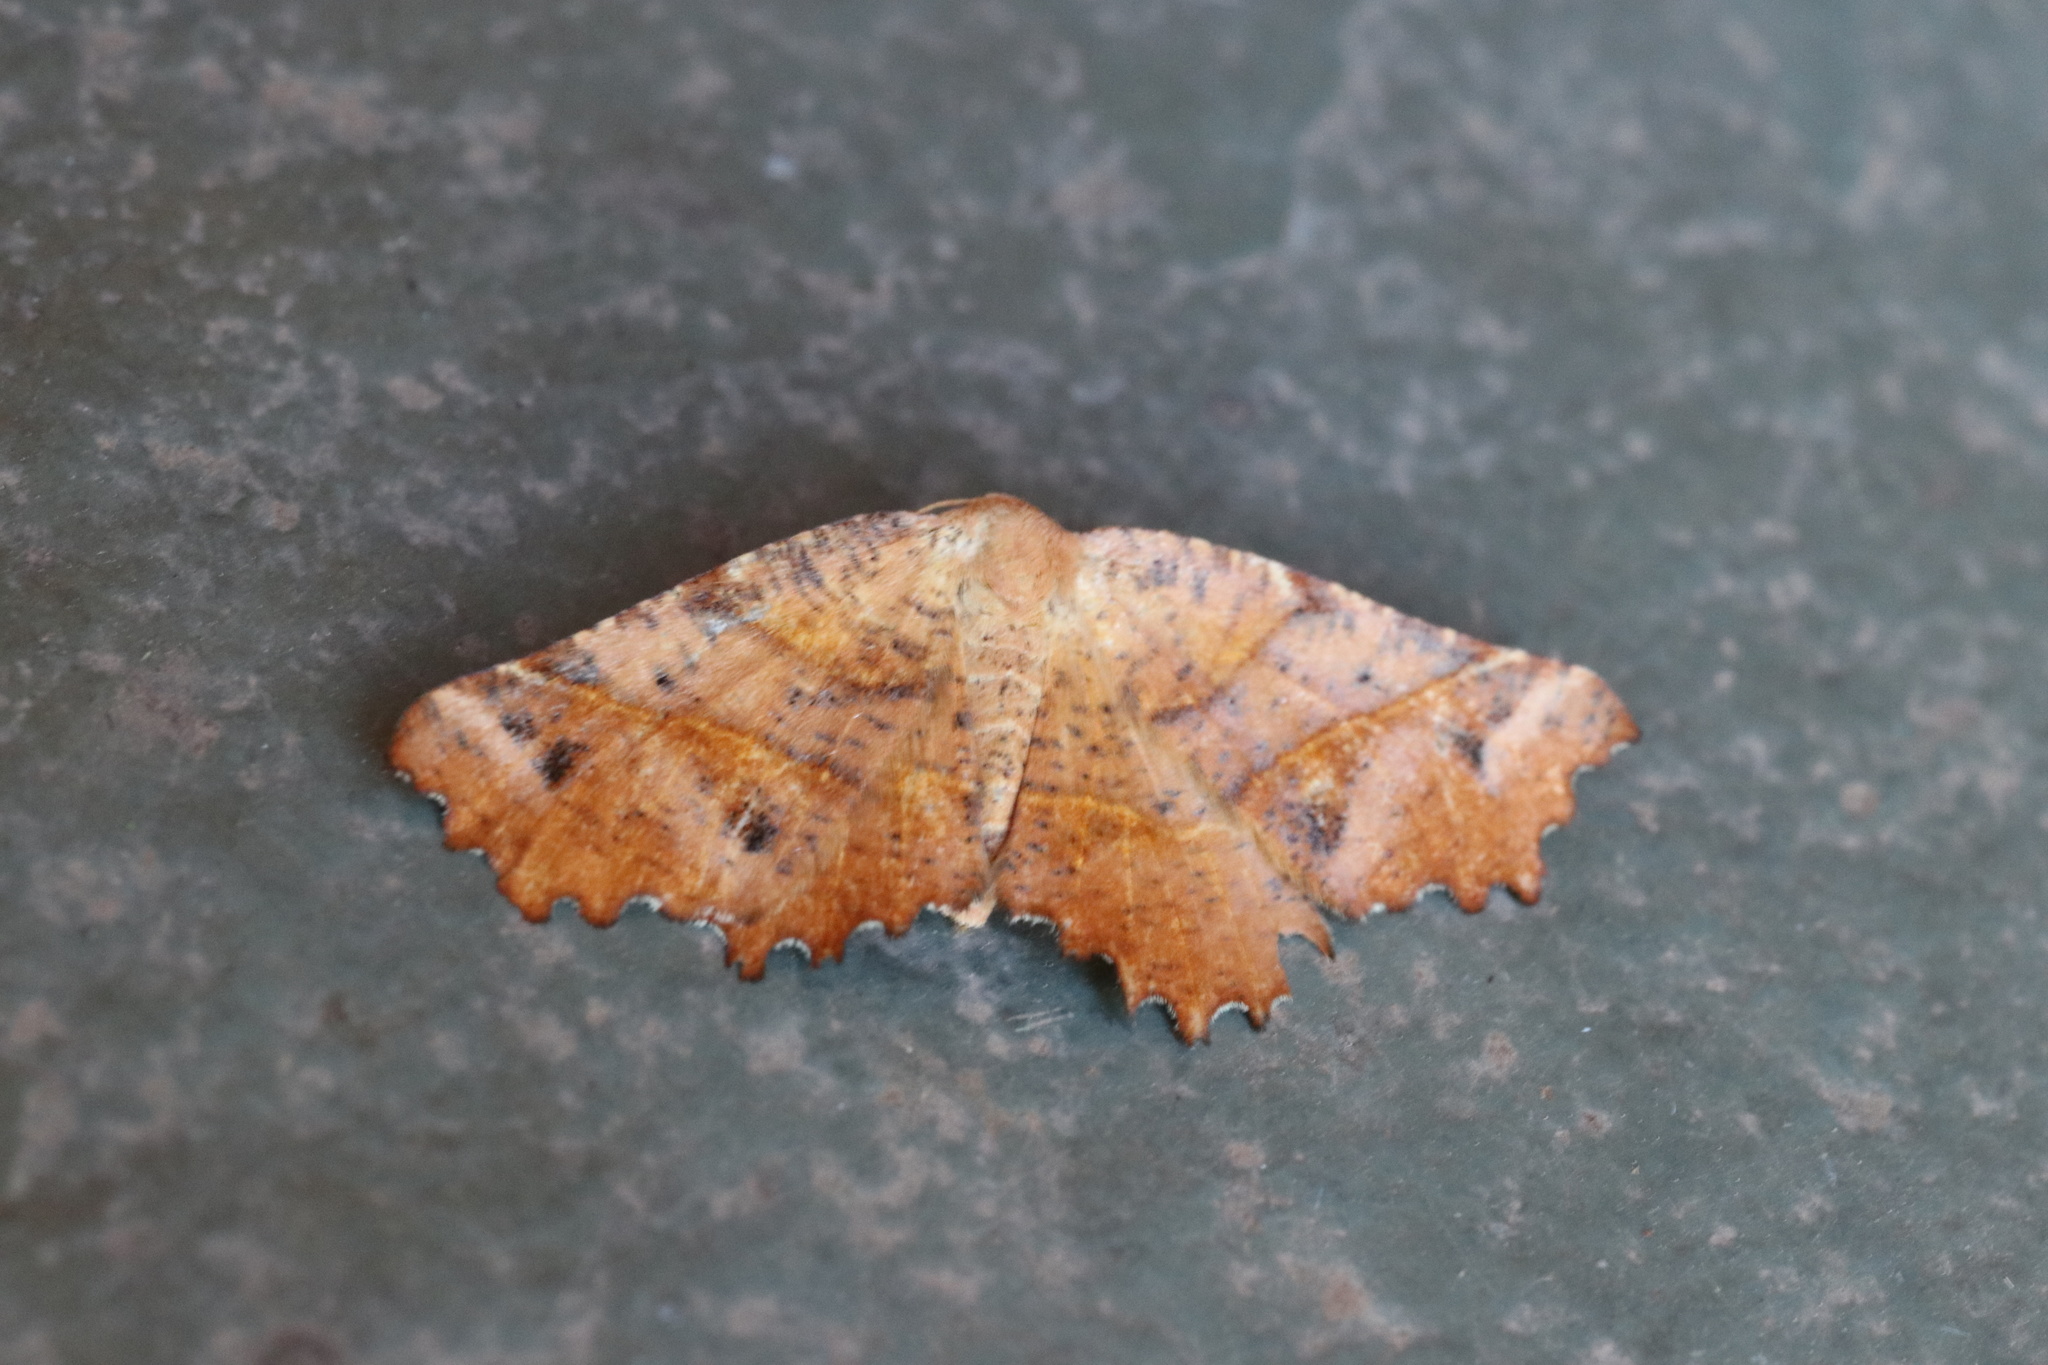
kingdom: Animalia
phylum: Arthropoda
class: Insecta
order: Lepidoptera
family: Geometridae
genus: Microclysia
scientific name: Microclysia pristopera
